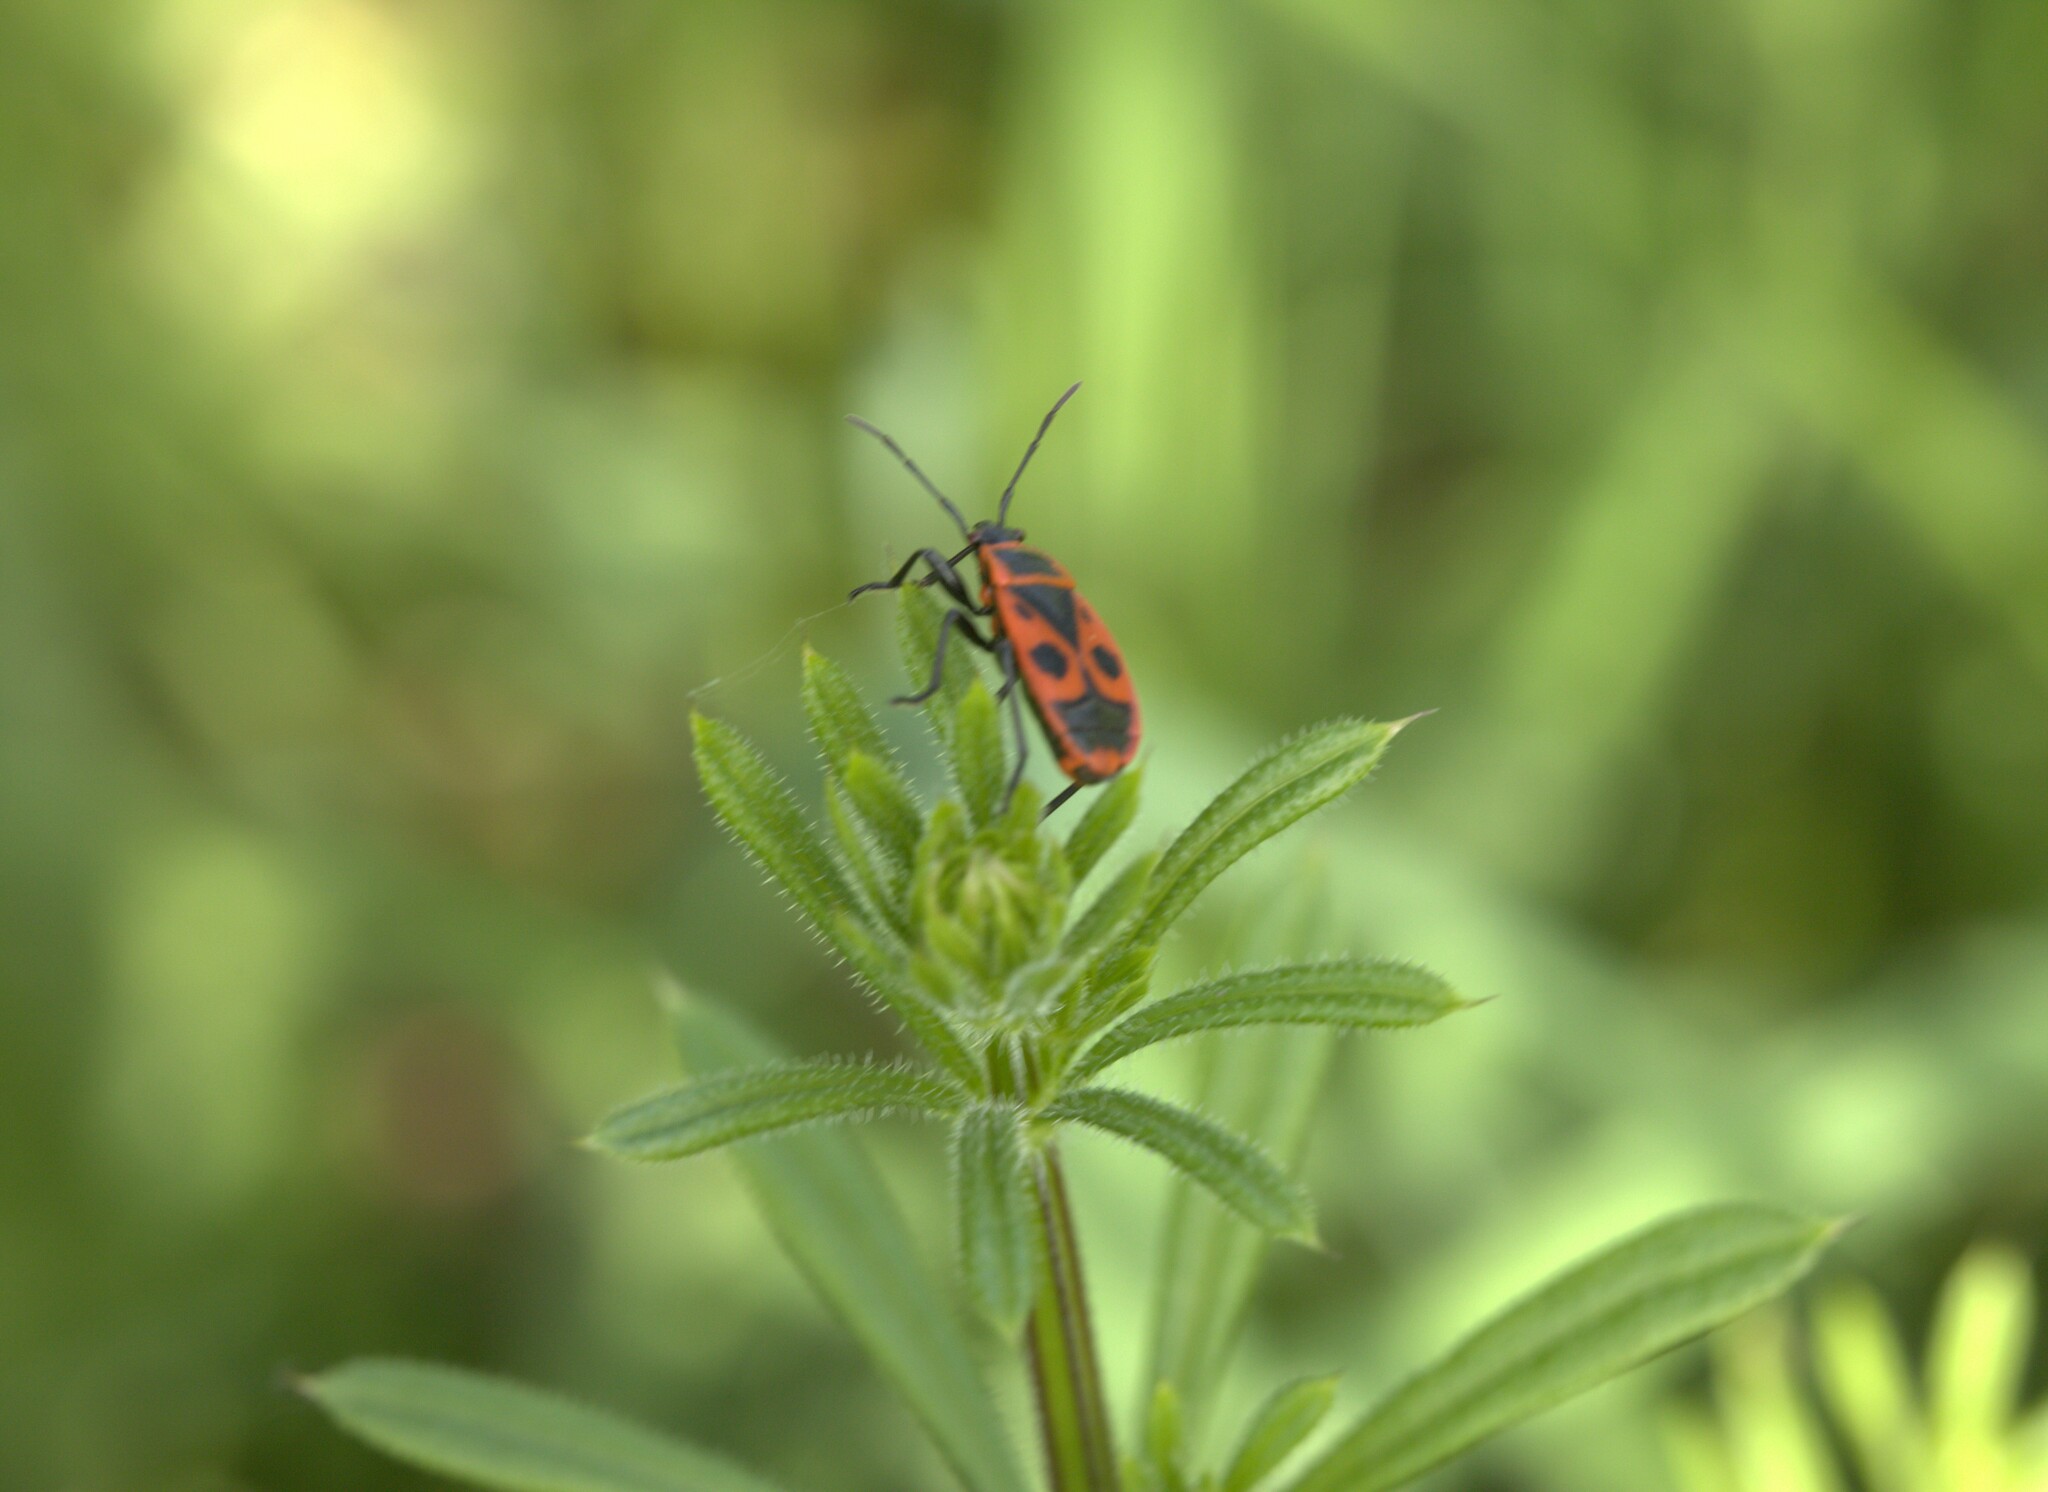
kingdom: Animalia
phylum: Arthropoda
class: Insecta
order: Hemiptera
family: Pyrrhocoridae
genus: Pyrrhocoris
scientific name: Pyrrhocoris apterus
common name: Firebug
